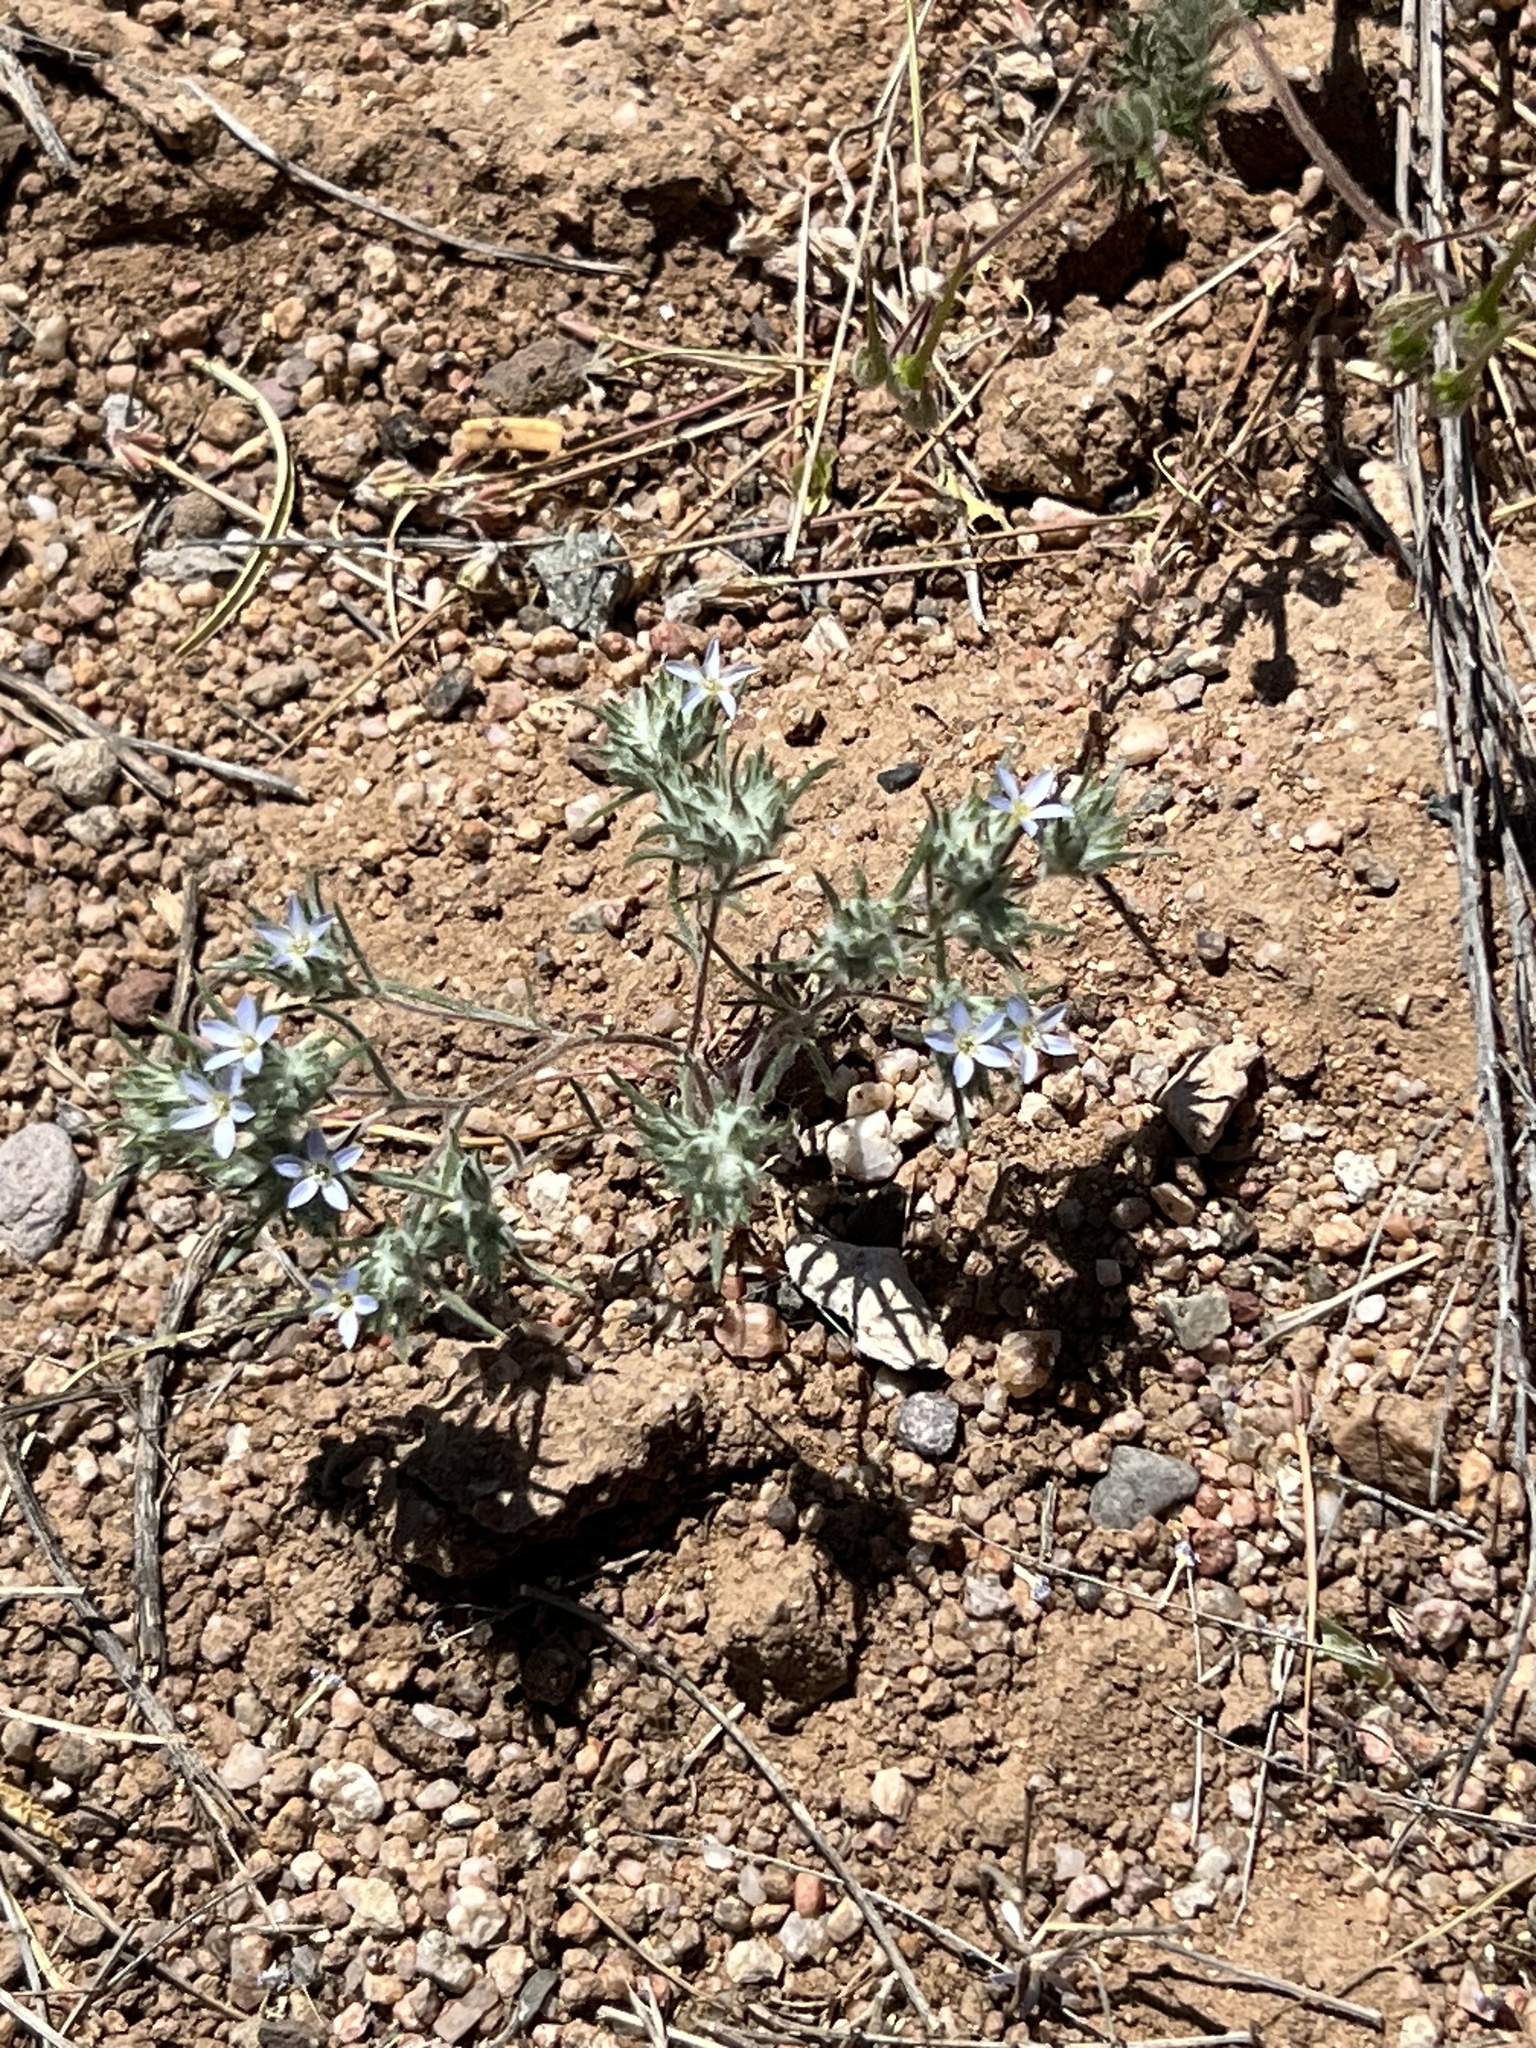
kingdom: Plantae
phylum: Tracheophyta
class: Magnoliopsida
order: Ericales
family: Polemoniaceae
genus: Eriastrum
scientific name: Eriastrum diffusum
